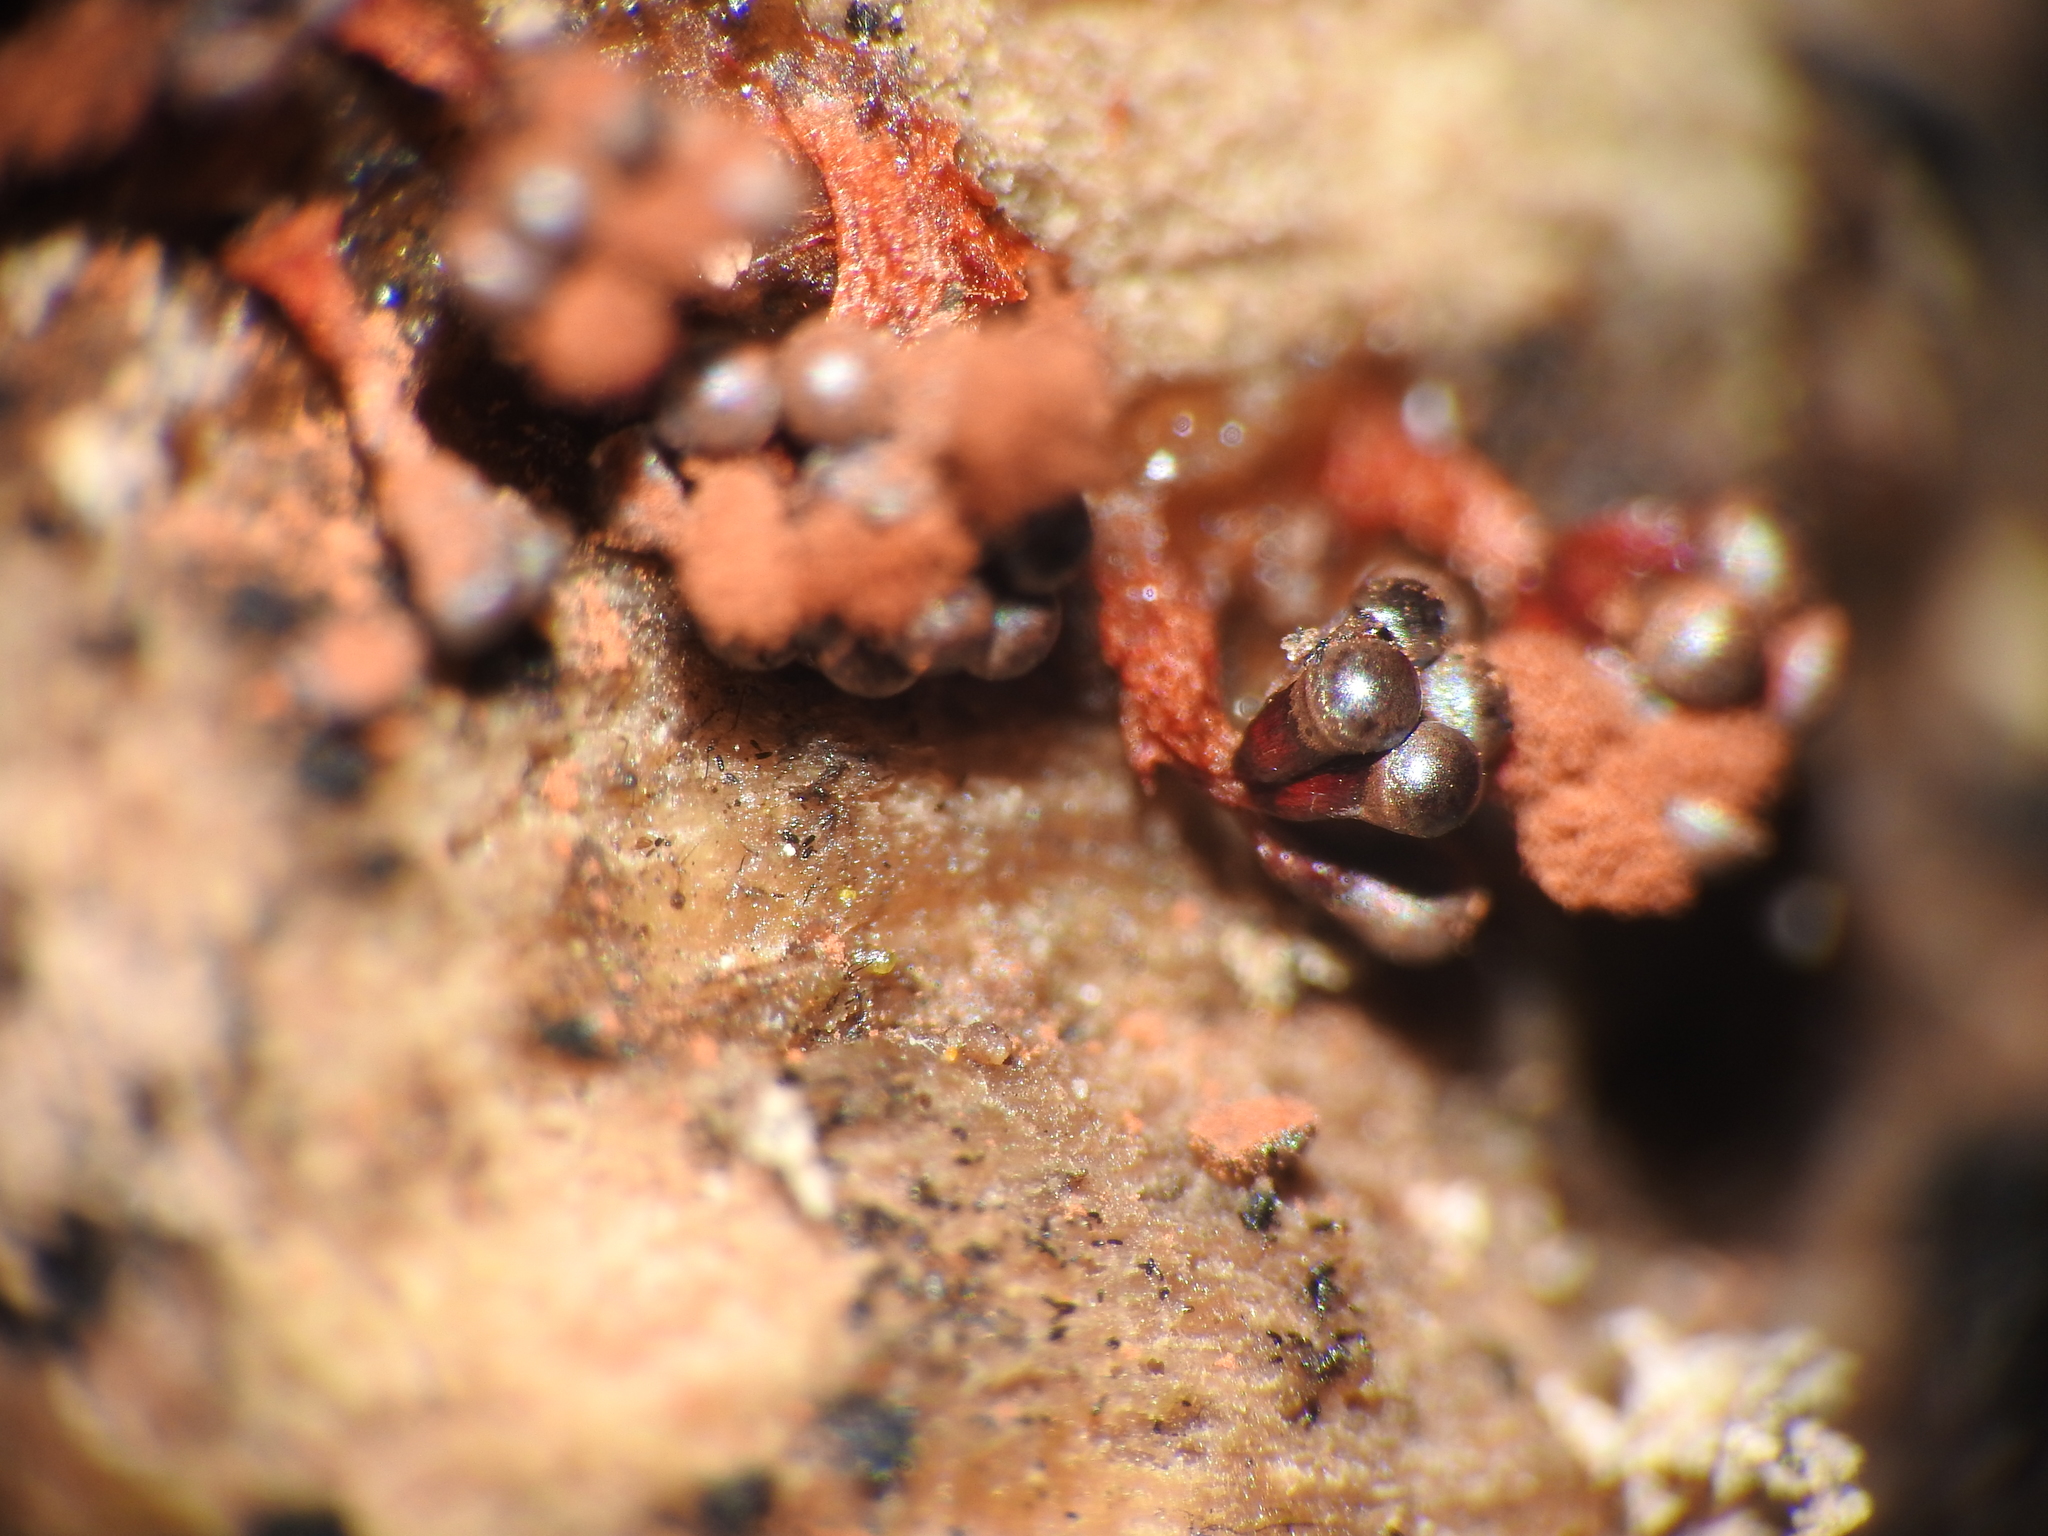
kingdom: Protozoa
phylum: Mycetozoa
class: Myxomycetes
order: Trichiales
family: Trichiaceae
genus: Metatrichia
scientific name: Metatrichia vesparia
